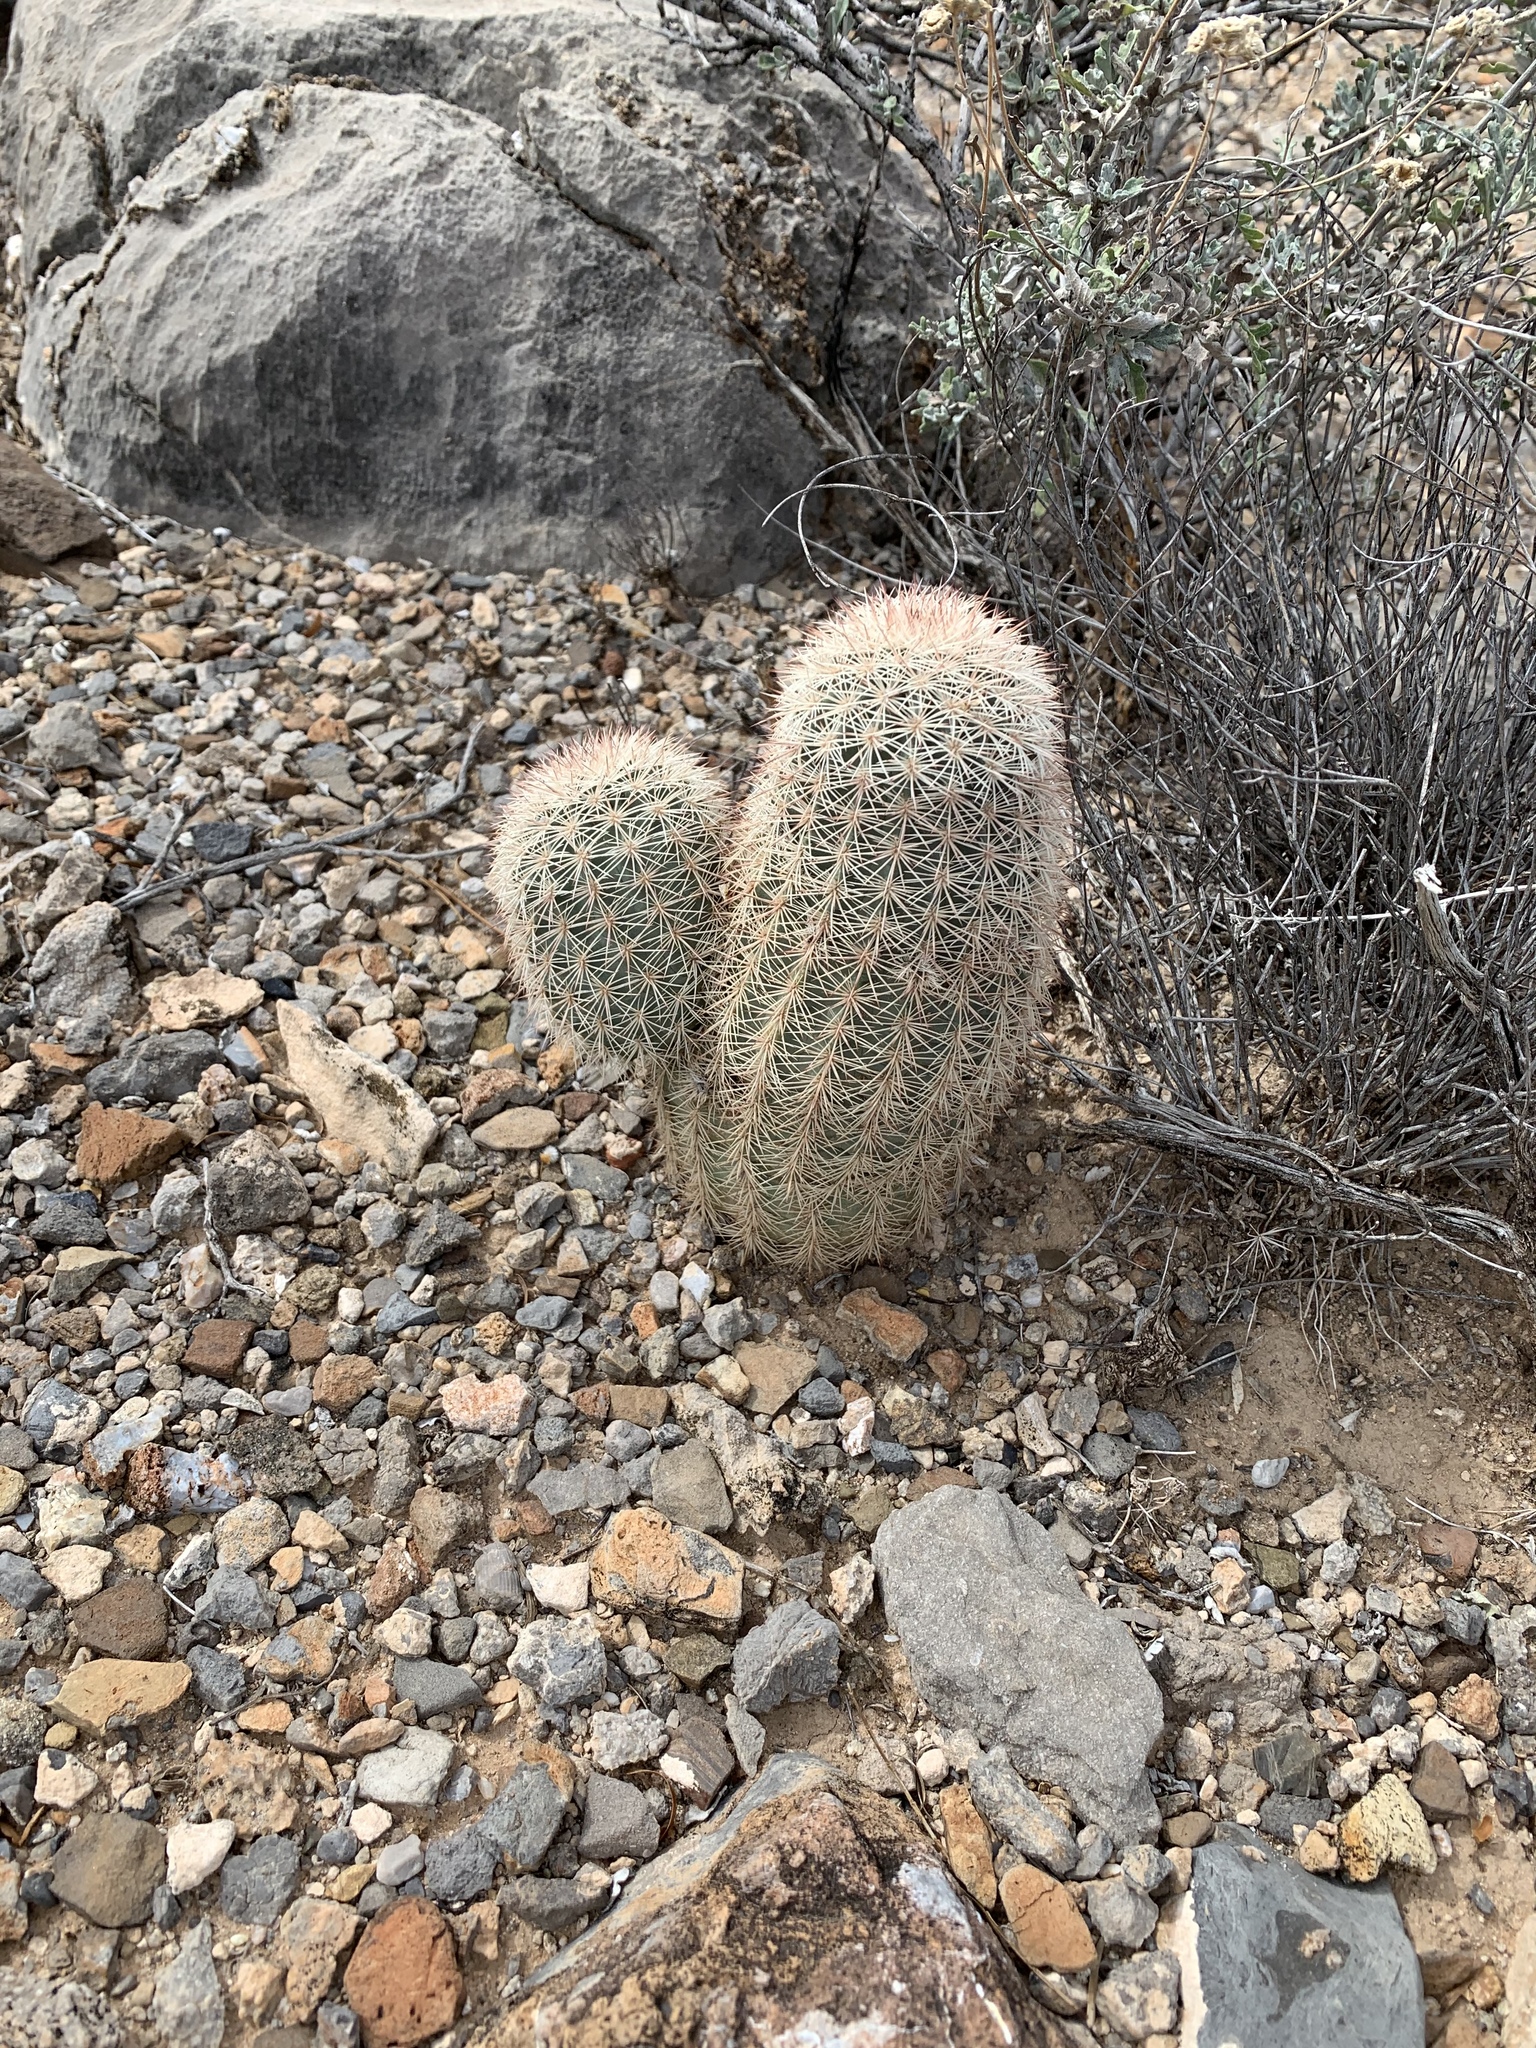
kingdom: Plantae
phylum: Tracheophyta
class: Magnoliopsida
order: Caryophyllales
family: Cactaceae
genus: Echinocereus
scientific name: Echinocereus dasyacanthus
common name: Spiny hedgehog cactus
